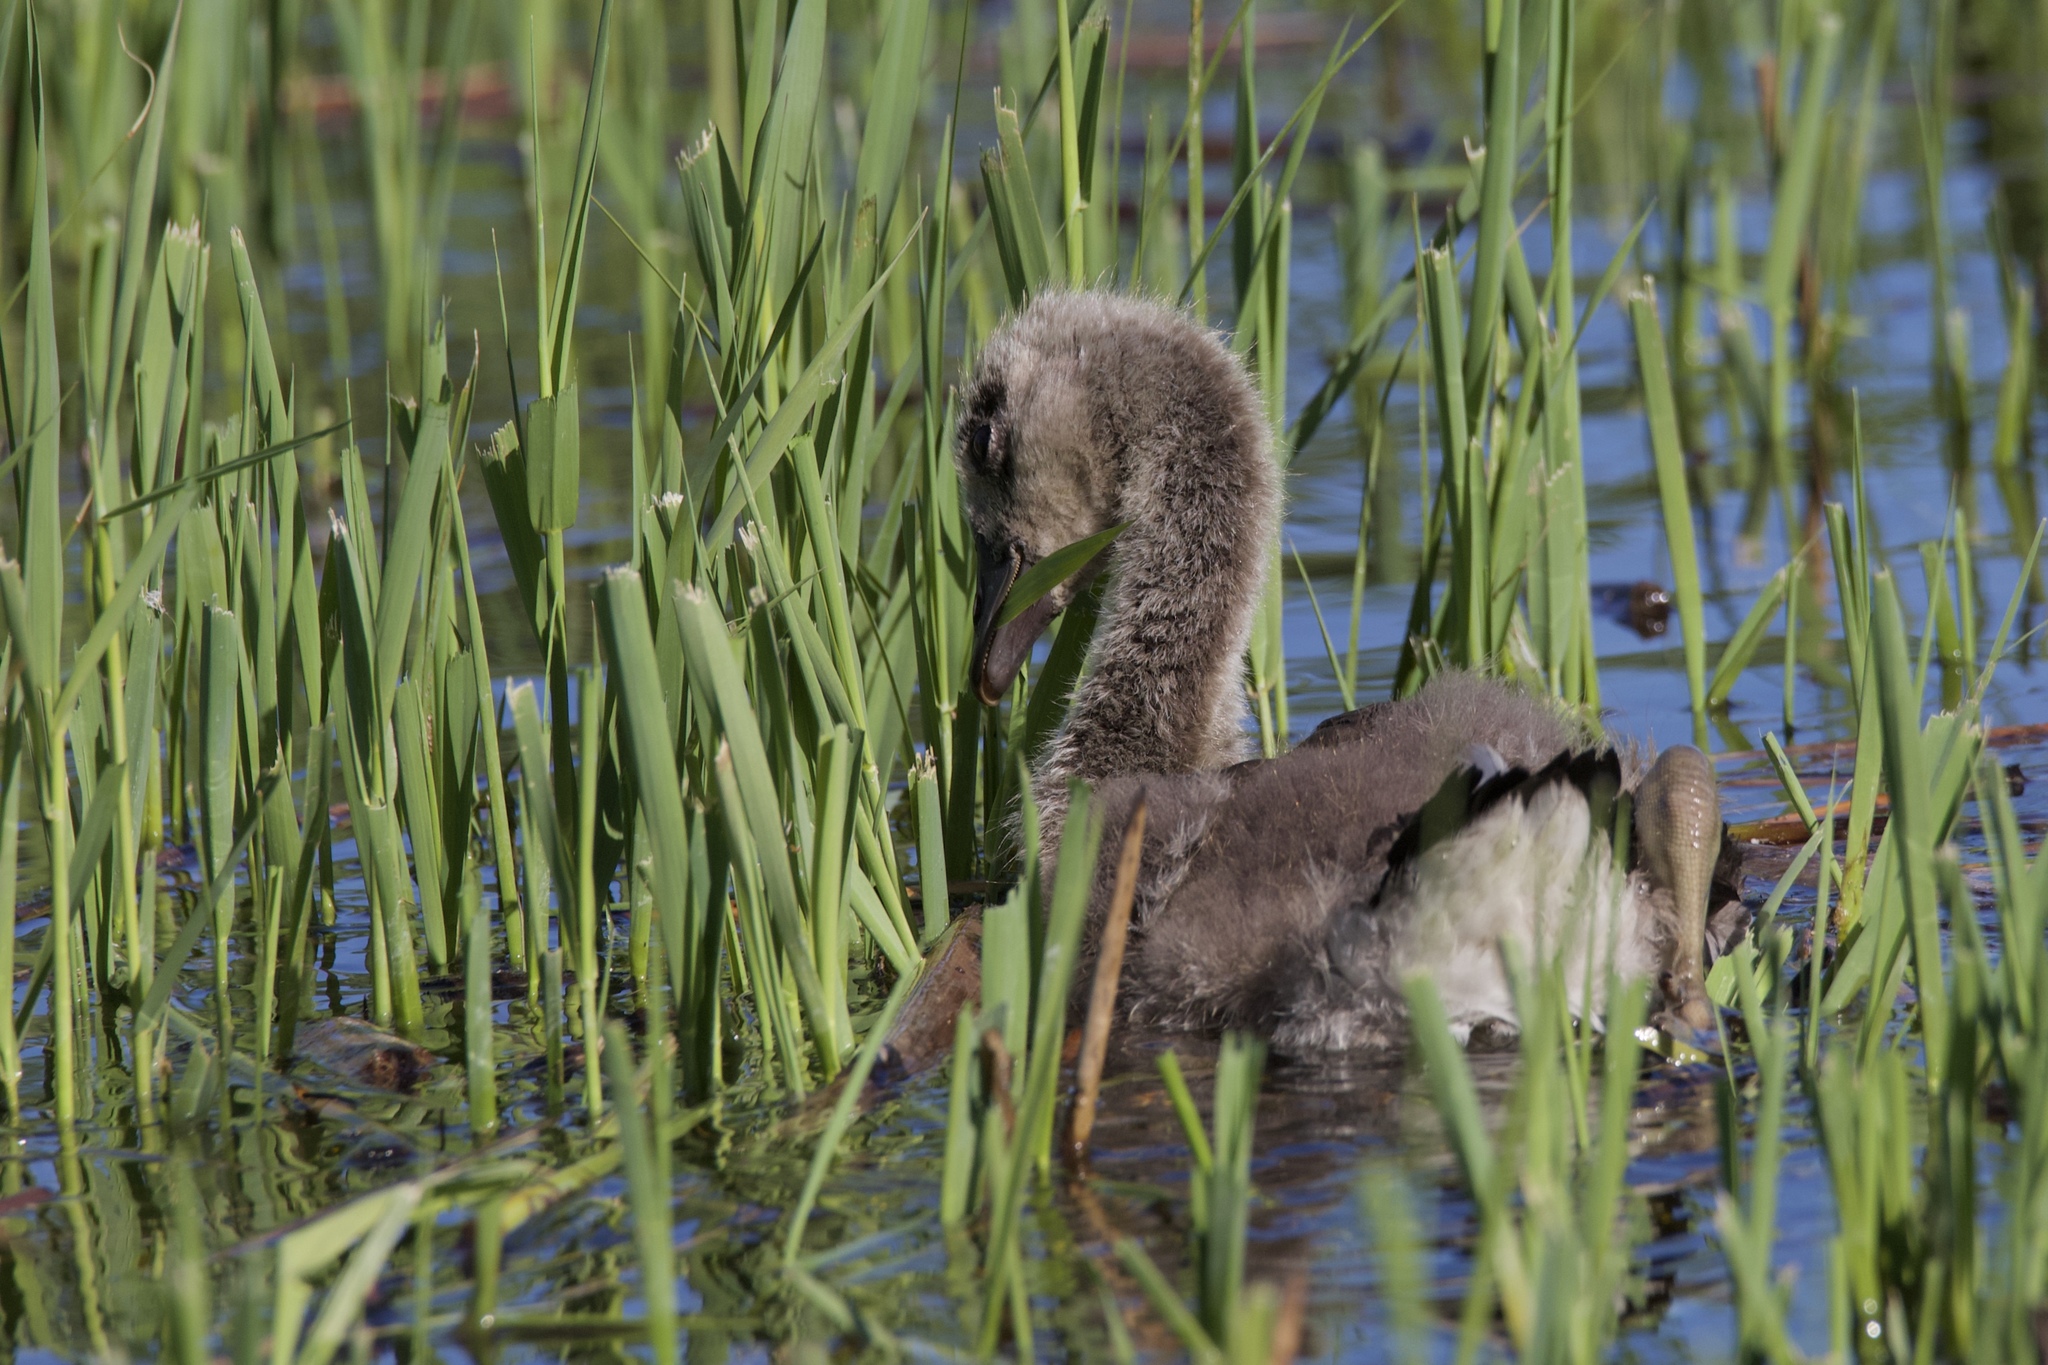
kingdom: Animalia
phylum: Chordata
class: Aves
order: Anseriformes
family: Anatidae
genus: Branta
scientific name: Branta canadensis
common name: Canada goose
